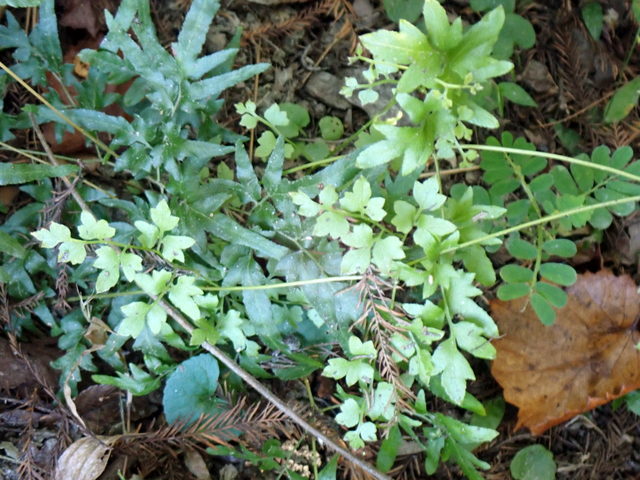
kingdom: Plantae
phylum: Tracheophyta
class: Polypodiopsida
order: Schizaeales
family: Lygodiaceae
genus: Lygodium
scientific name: Lygodium japonicum
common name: Japanese climbing fern
